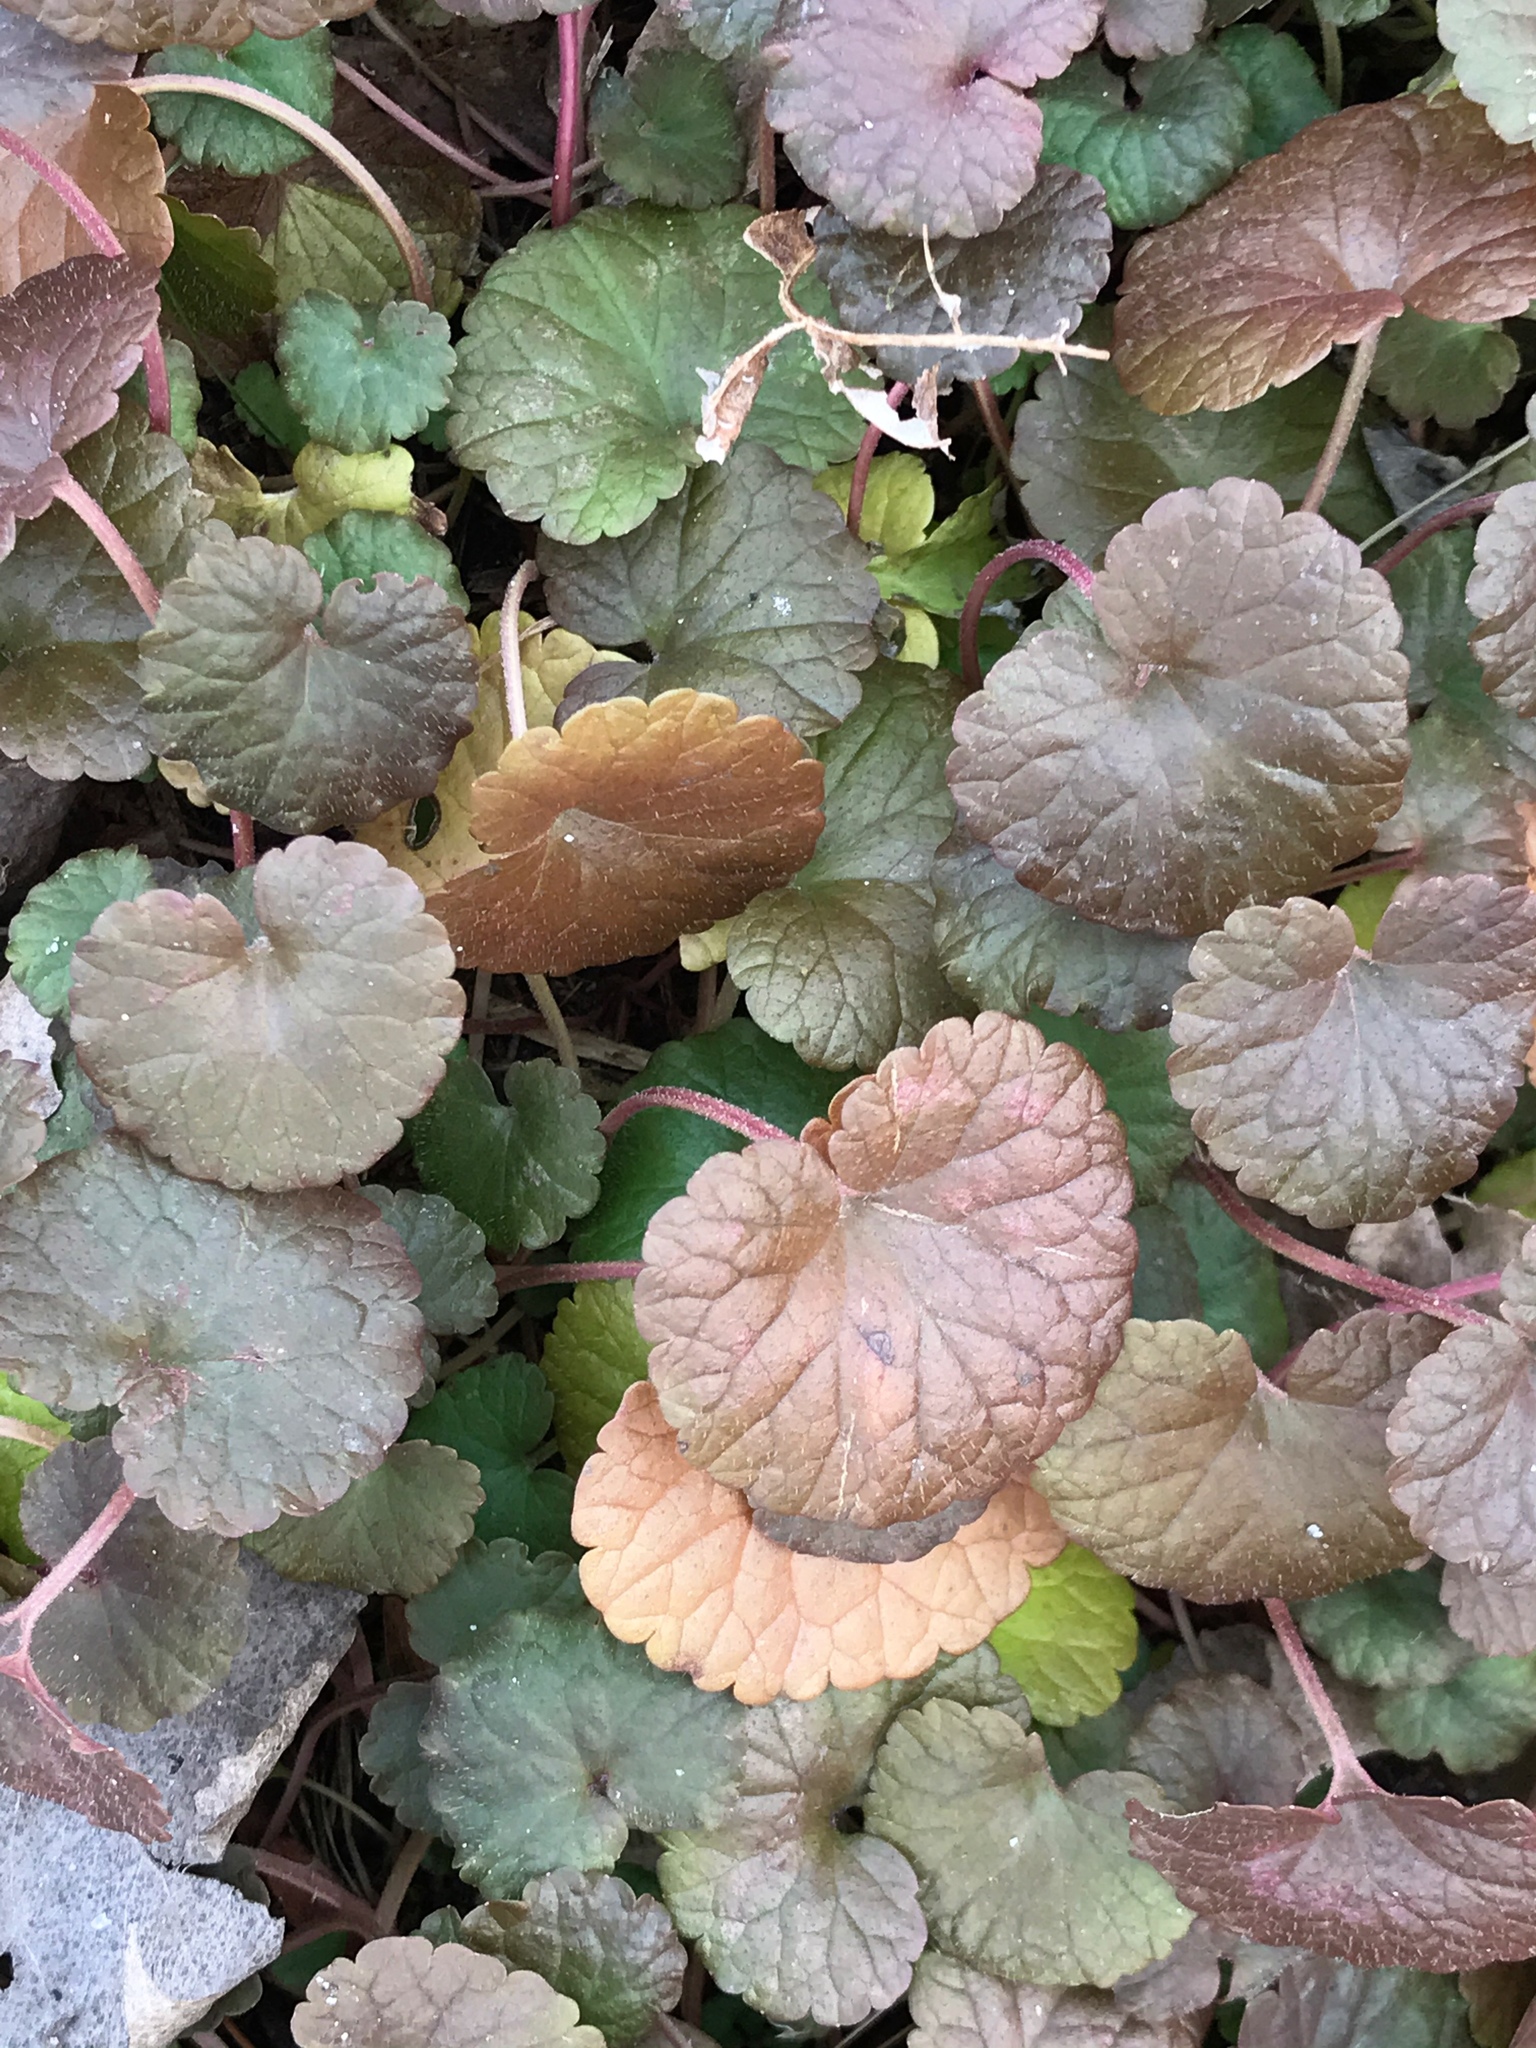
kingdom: Plantae
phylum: Tracheophyta
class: Magnoliopsida
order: Lamiales
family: Lamiaceae
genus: Glechoma
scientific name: Glechoma hederacea
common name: Ground ivy
